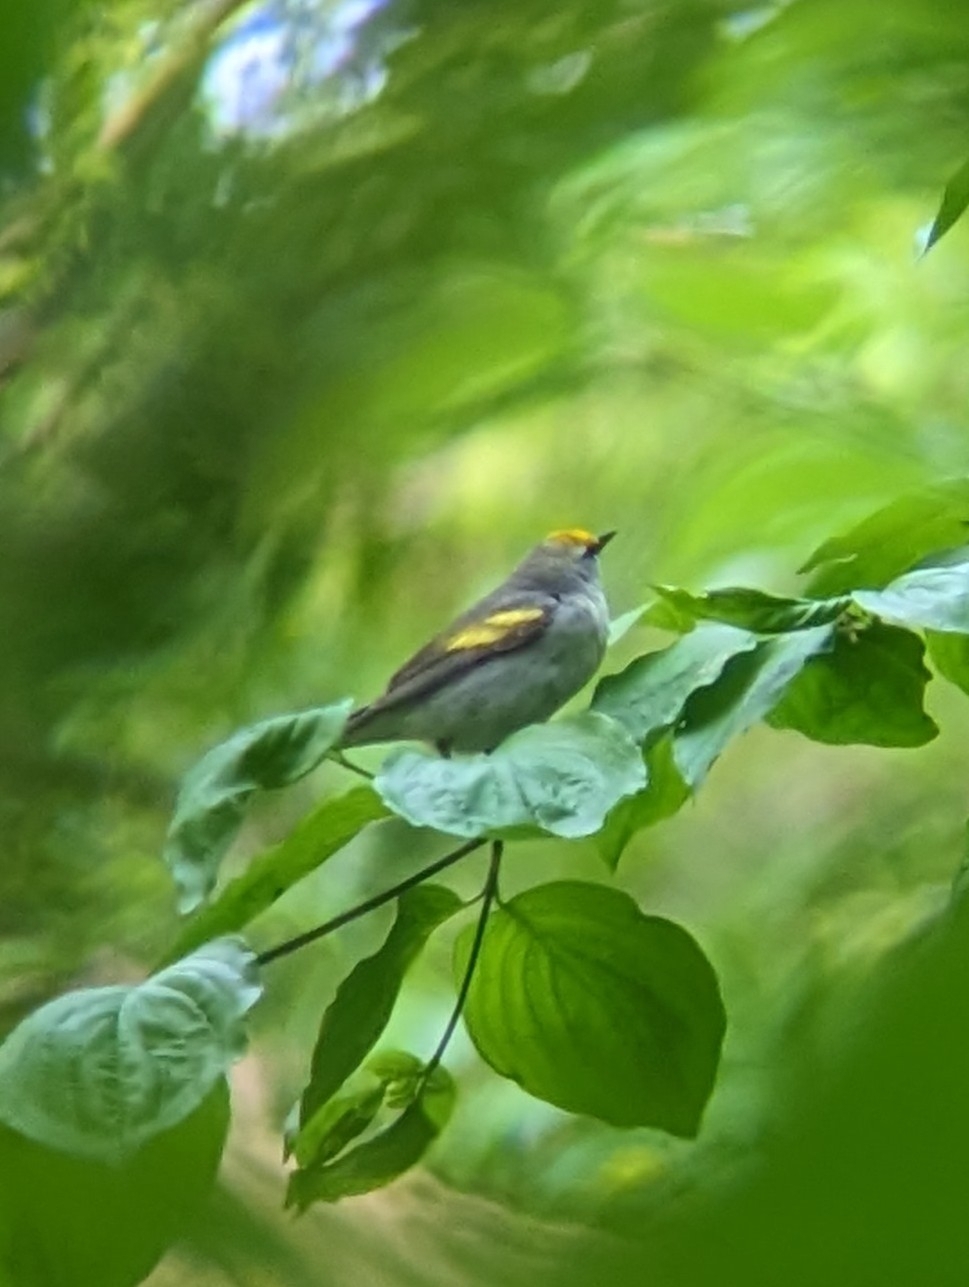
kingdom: Animalia
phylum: Chordata
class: Aves
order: Passeriformes
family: Parulidae
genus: Vermivora
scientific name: Vermivora
